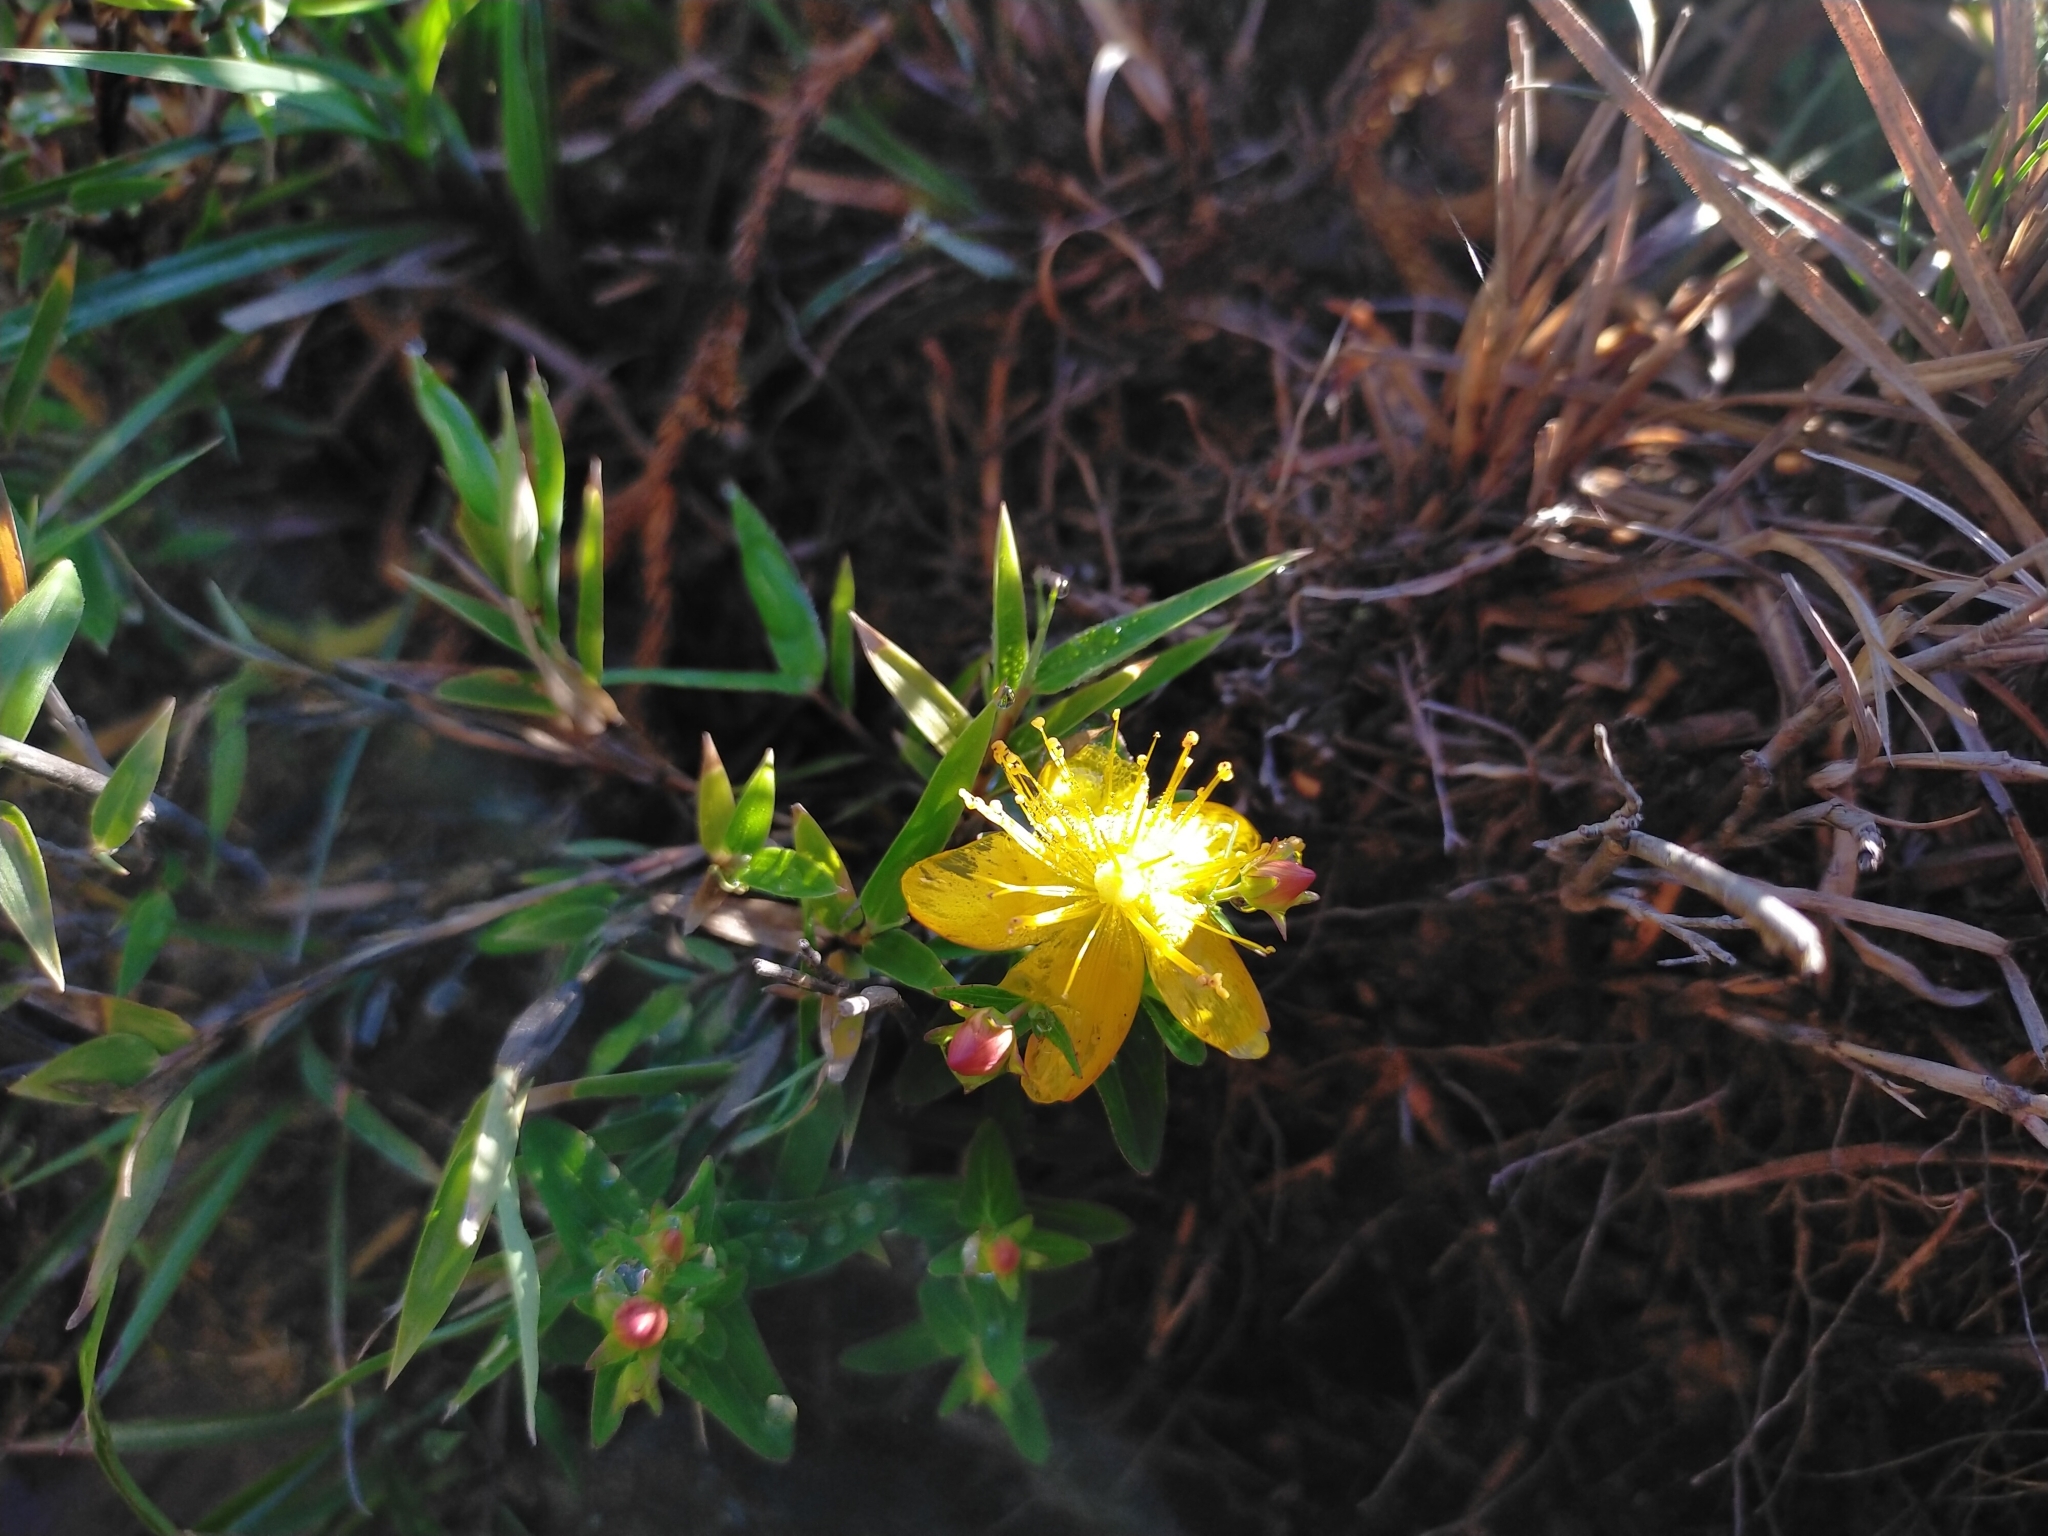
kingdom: Plantae
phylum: Tracheophyta
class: Magnoliopsida
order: Malpighiales
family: Hypericaceae
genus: Hypericum
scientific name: Hypericum nagasawae
